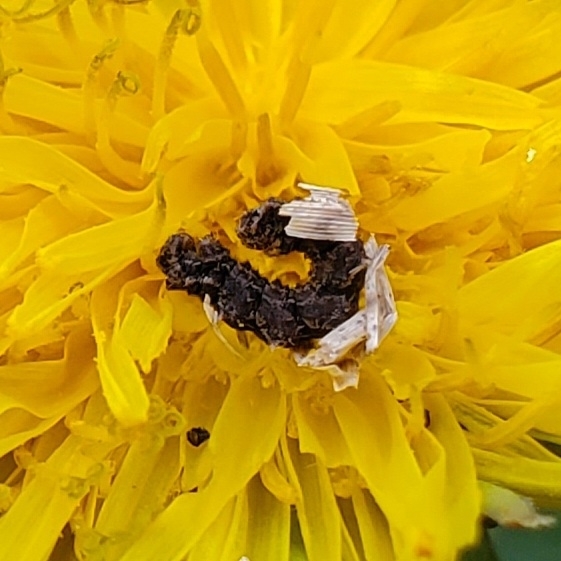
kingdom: Animalia
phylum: Arthropoda
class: Insecta
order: Lepidoptera
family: Geometridae
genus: Synchlora
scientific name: Synchlora aerata
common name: Wavy-lined emerald
